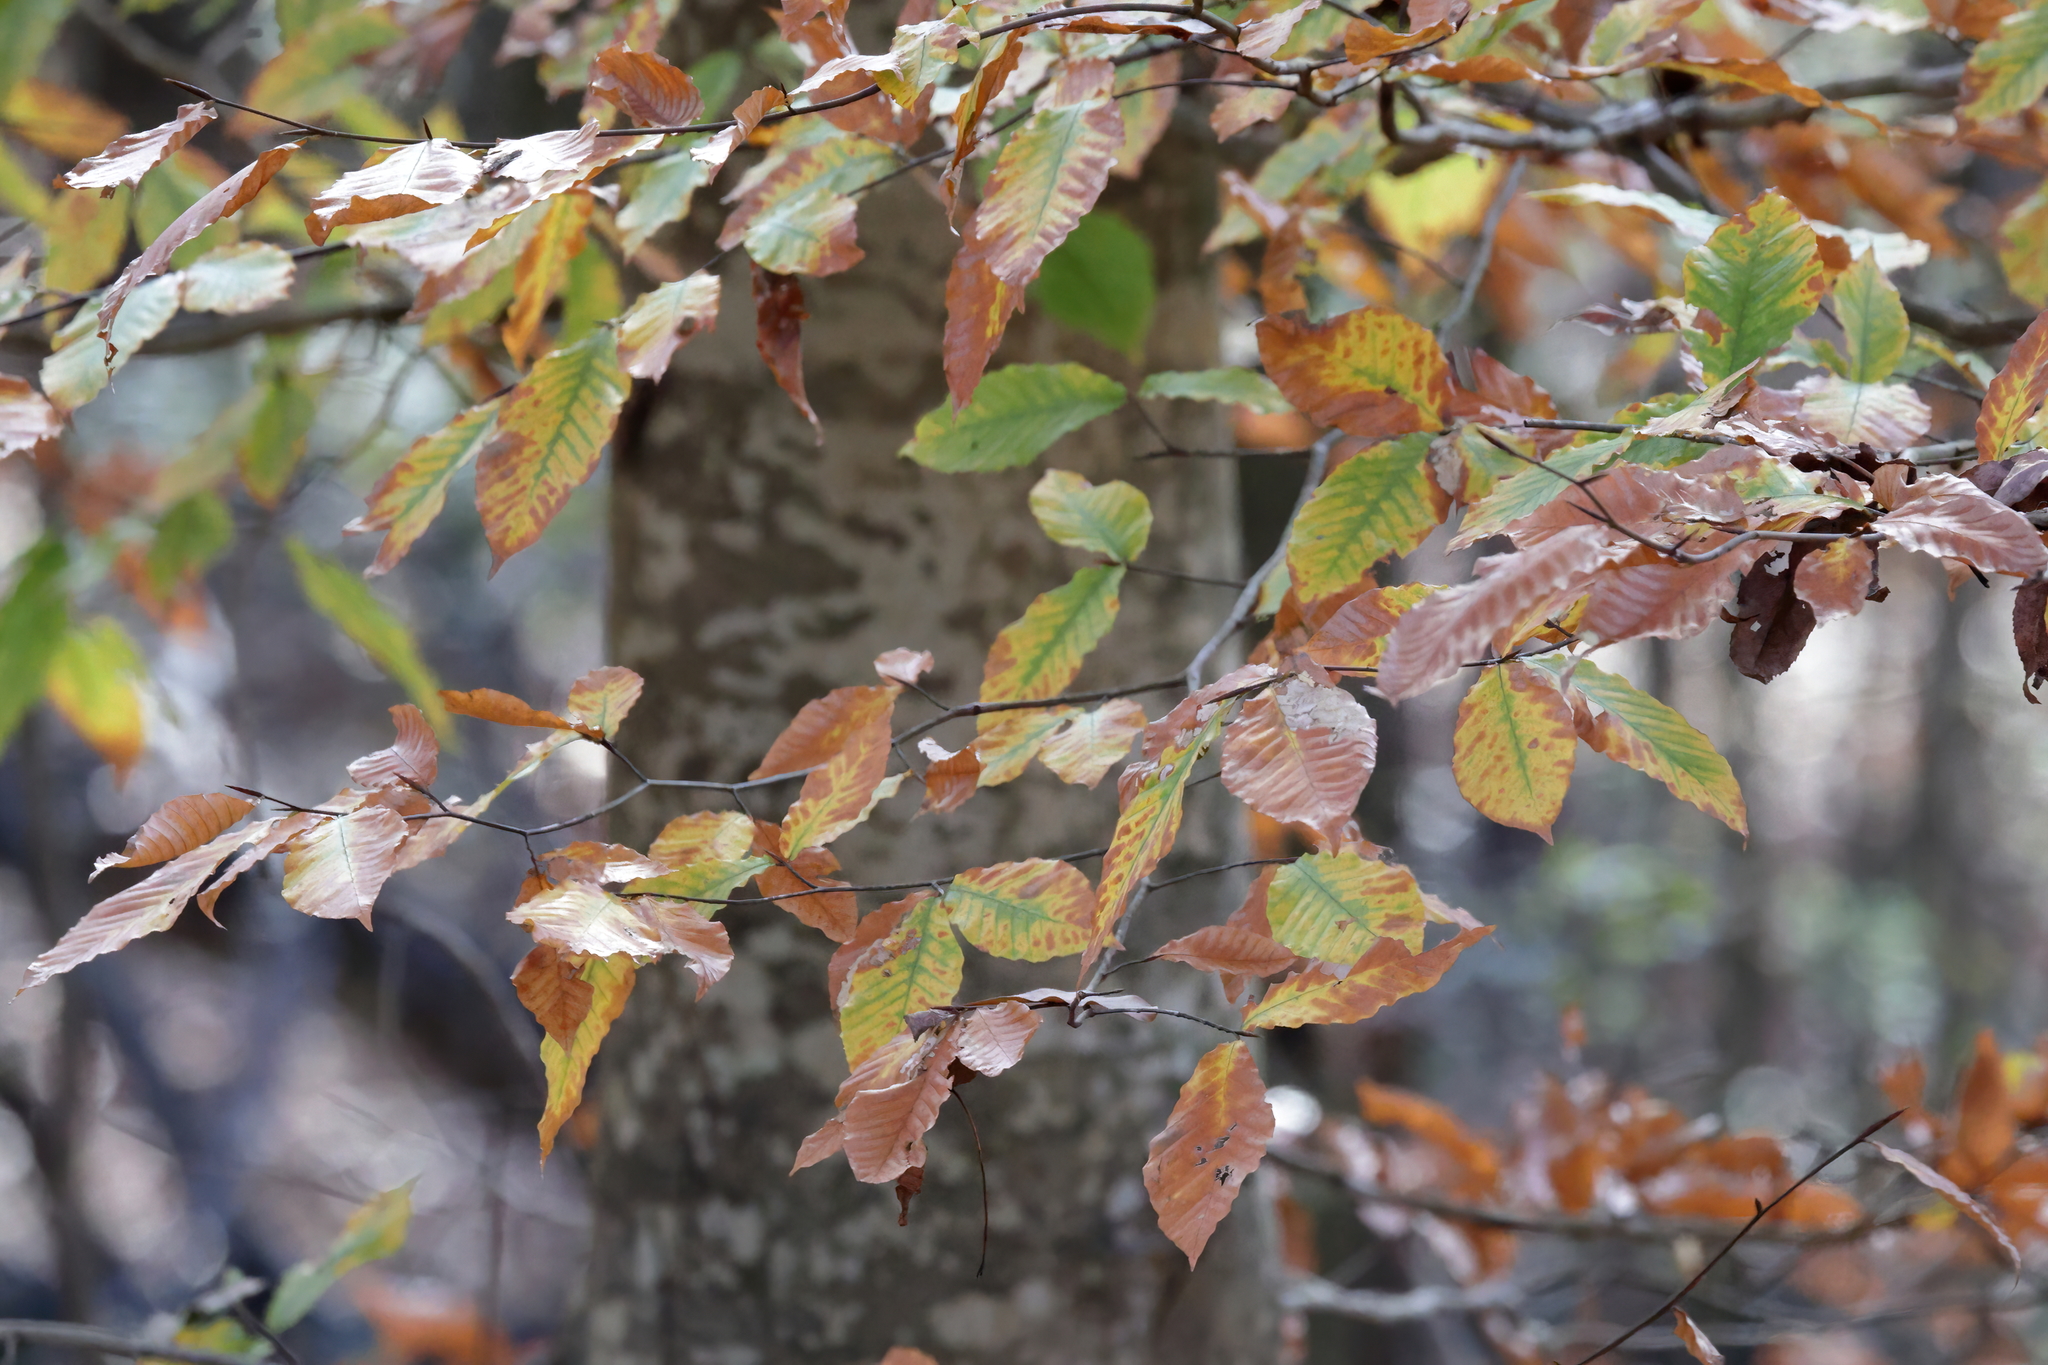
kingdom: Plantae
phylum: Tracheophyta
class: Magnoliopsida
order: Fagales
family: Fagaceae
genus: Fagus
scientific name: Fagus grandifolia
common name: American beech
